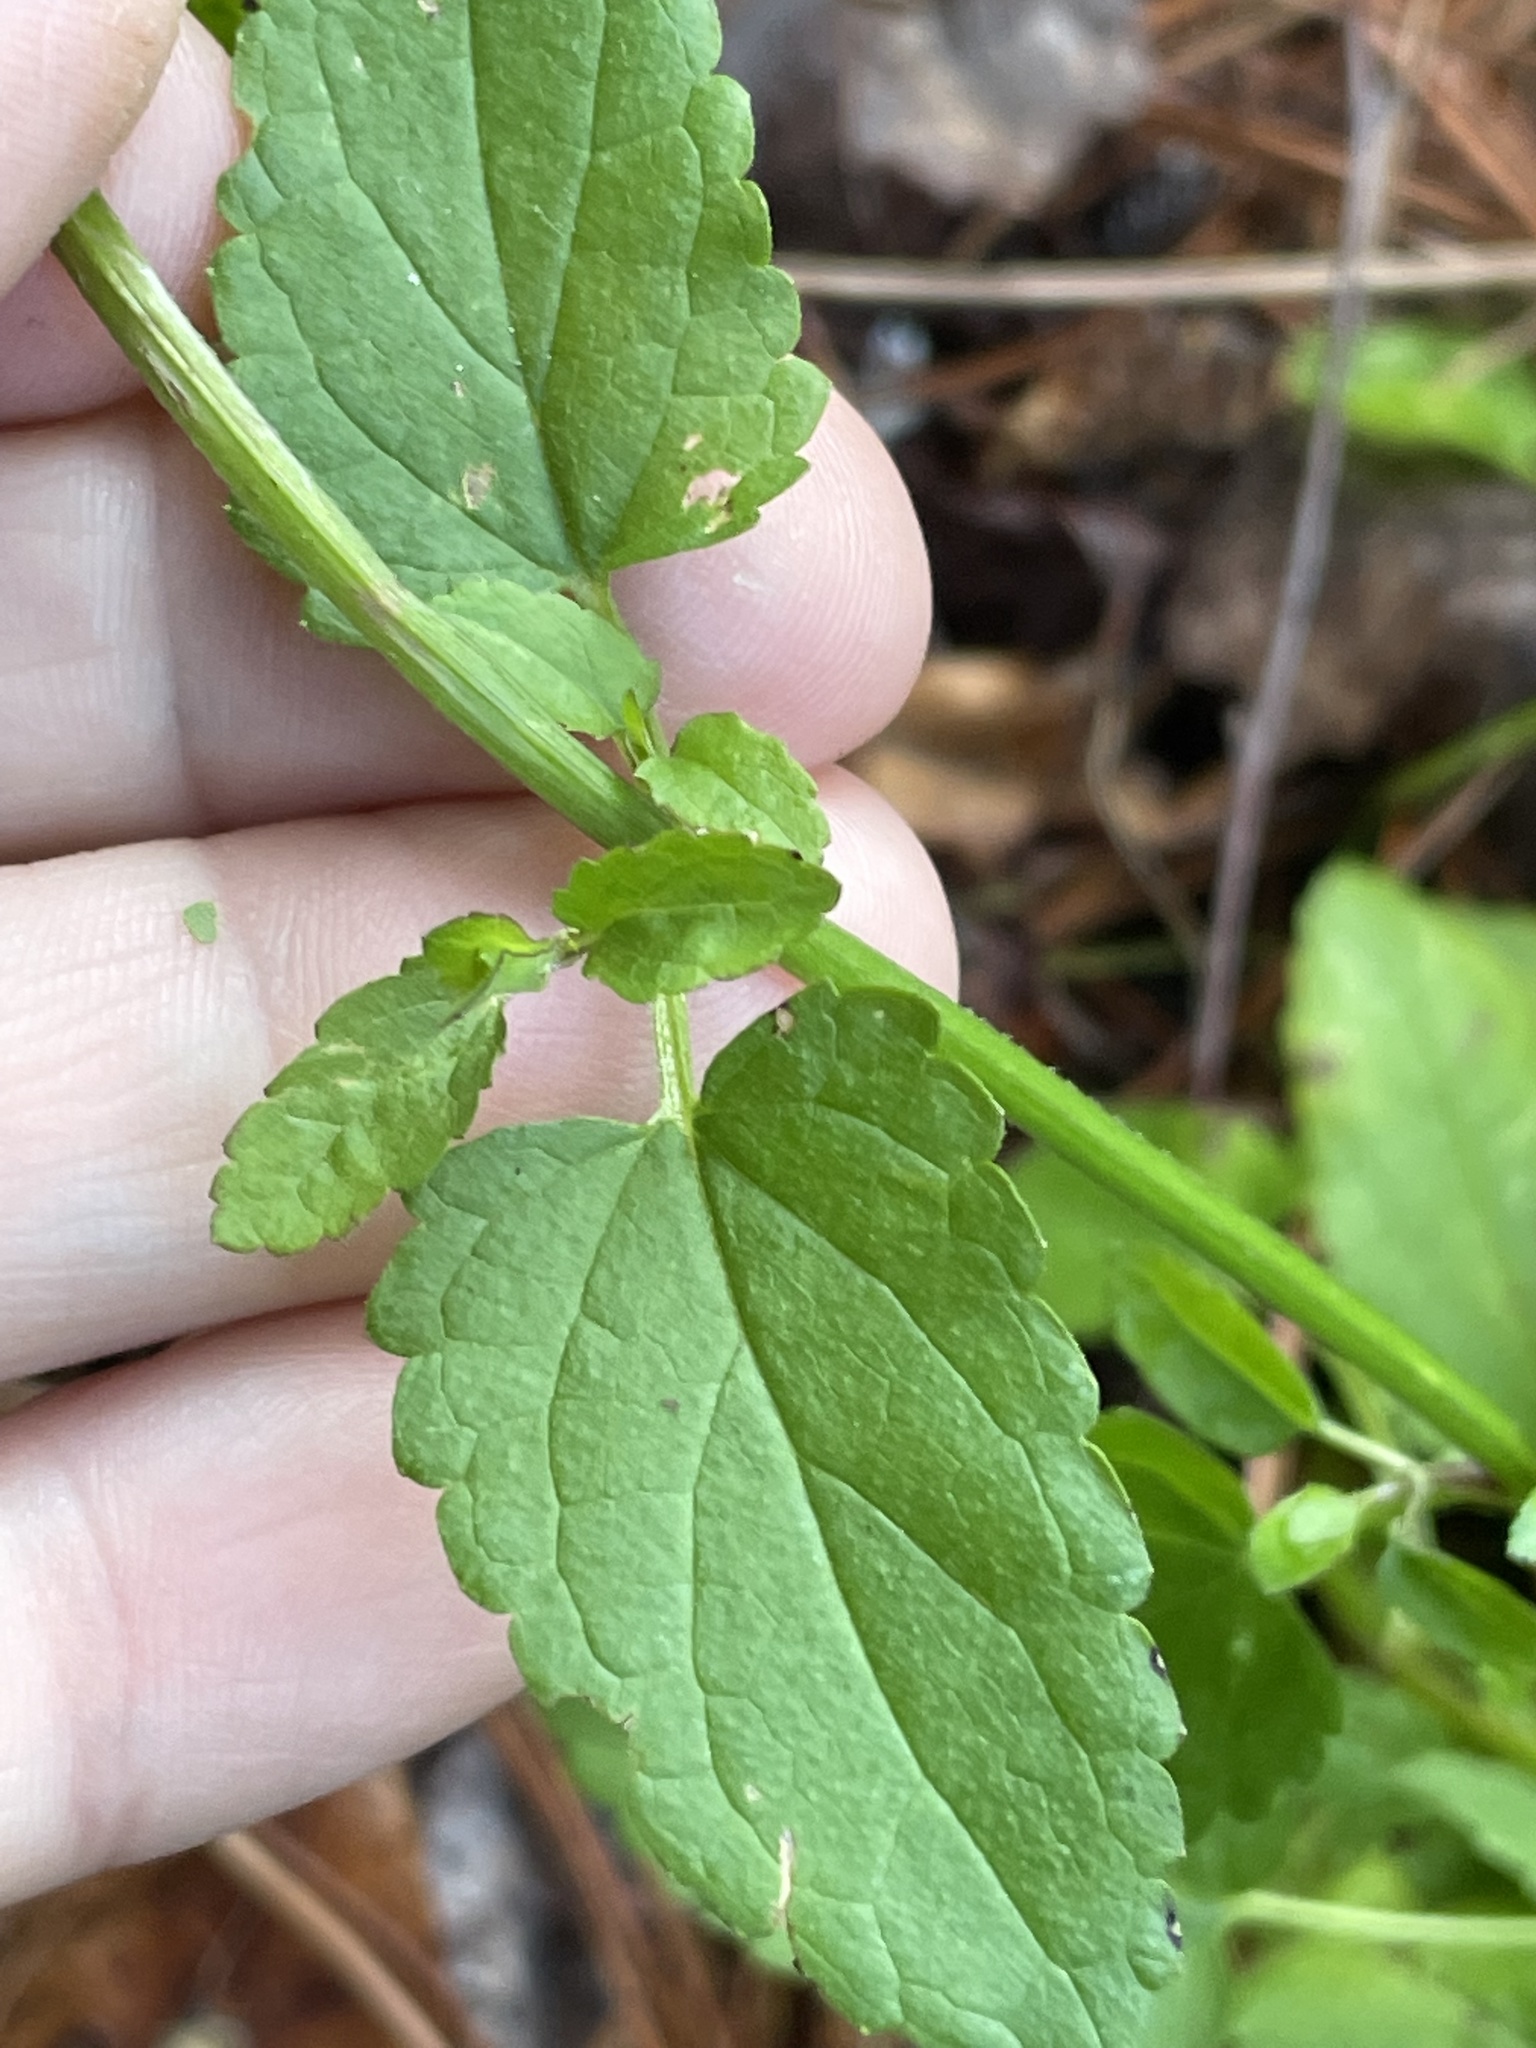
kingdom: Plantae
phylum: Tracheophyta
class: Magnoliopsida
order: Lamiales
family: Lamiaceae
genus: Stachys
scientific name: Stachys floridana
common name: Florida betony
